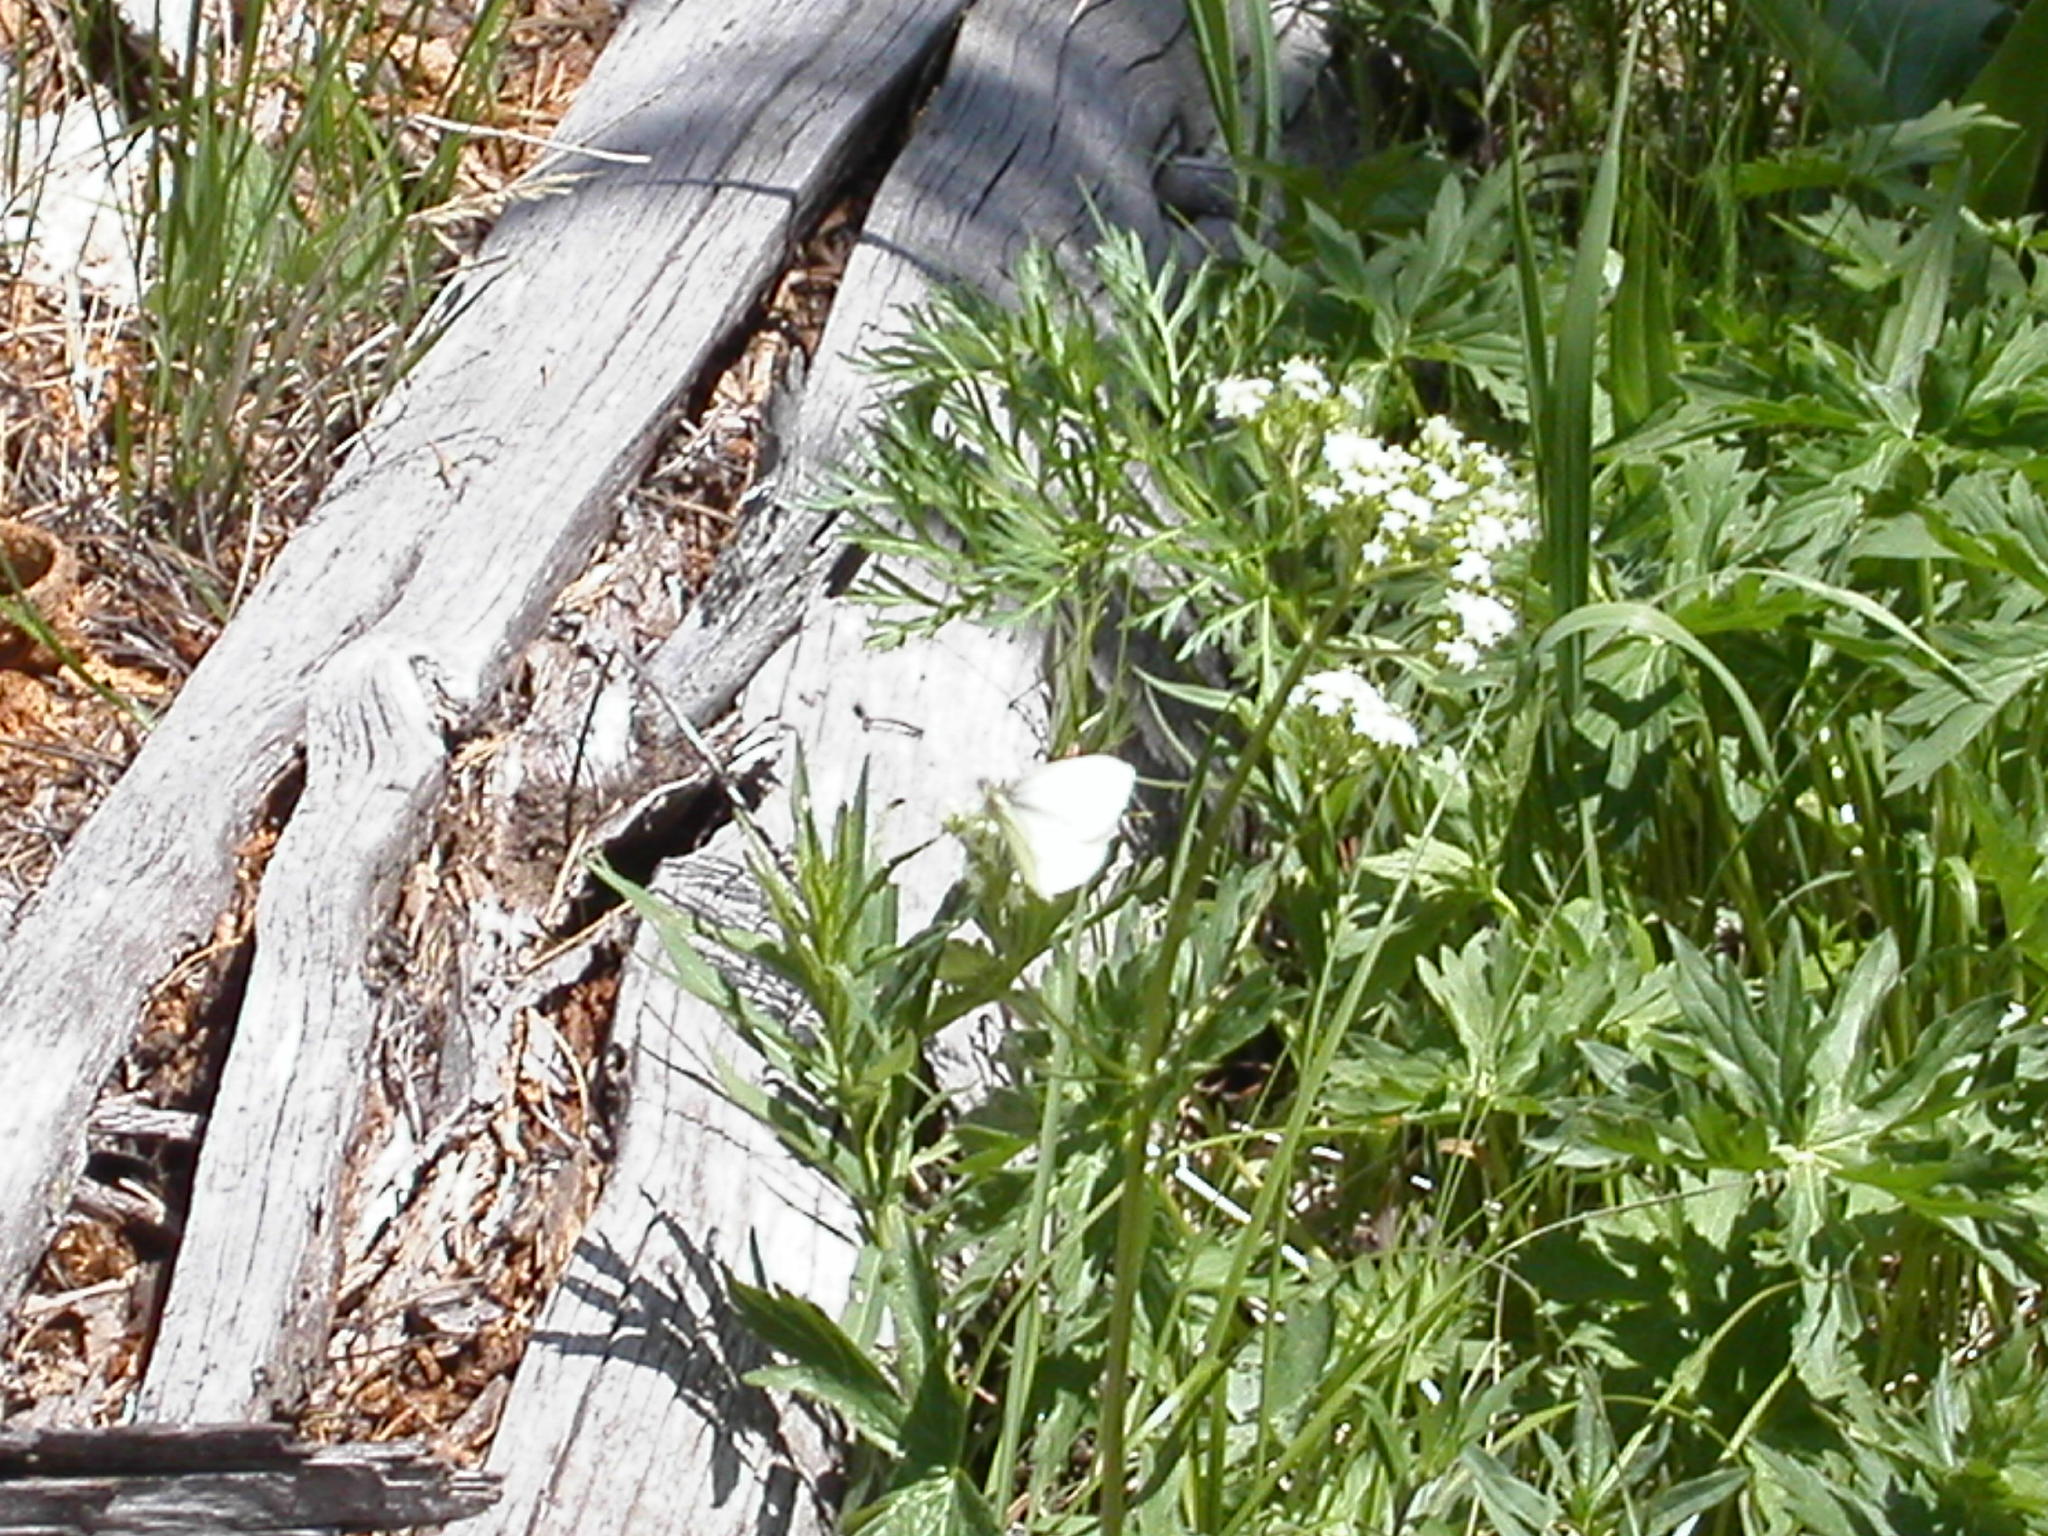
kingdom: Animalia
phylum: Arthropoda
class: Insecta
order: Lepidoptera
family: Pieridae
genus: Pieris
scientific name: Pieris marginalis
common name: Margined white
